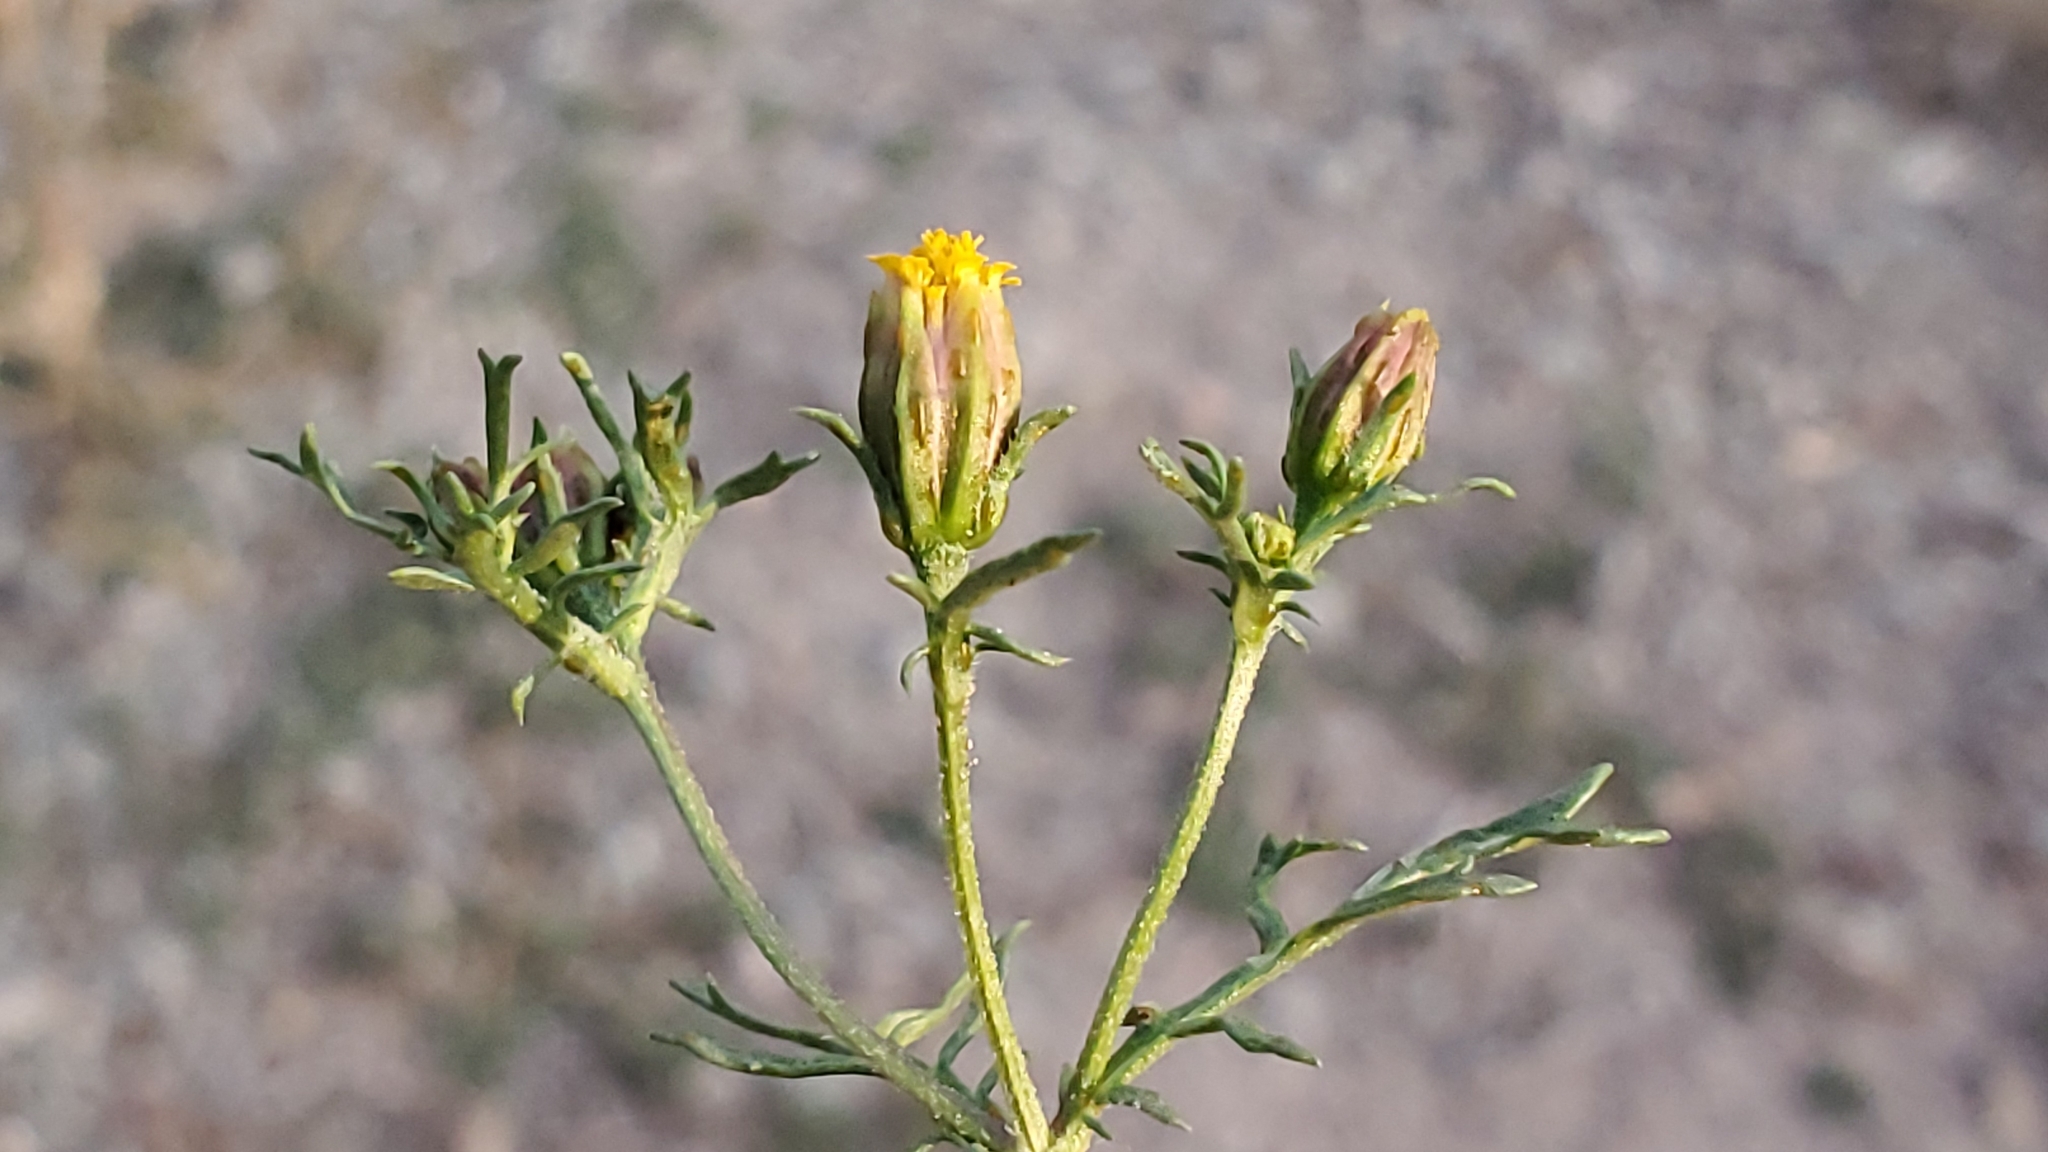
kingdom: Plantae
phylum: Tracheophyta
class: Magnoliopsida
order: Asterales
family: Asteraceae
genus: Dyssodia
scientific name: Dyssodia papposa
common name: Dogweed
